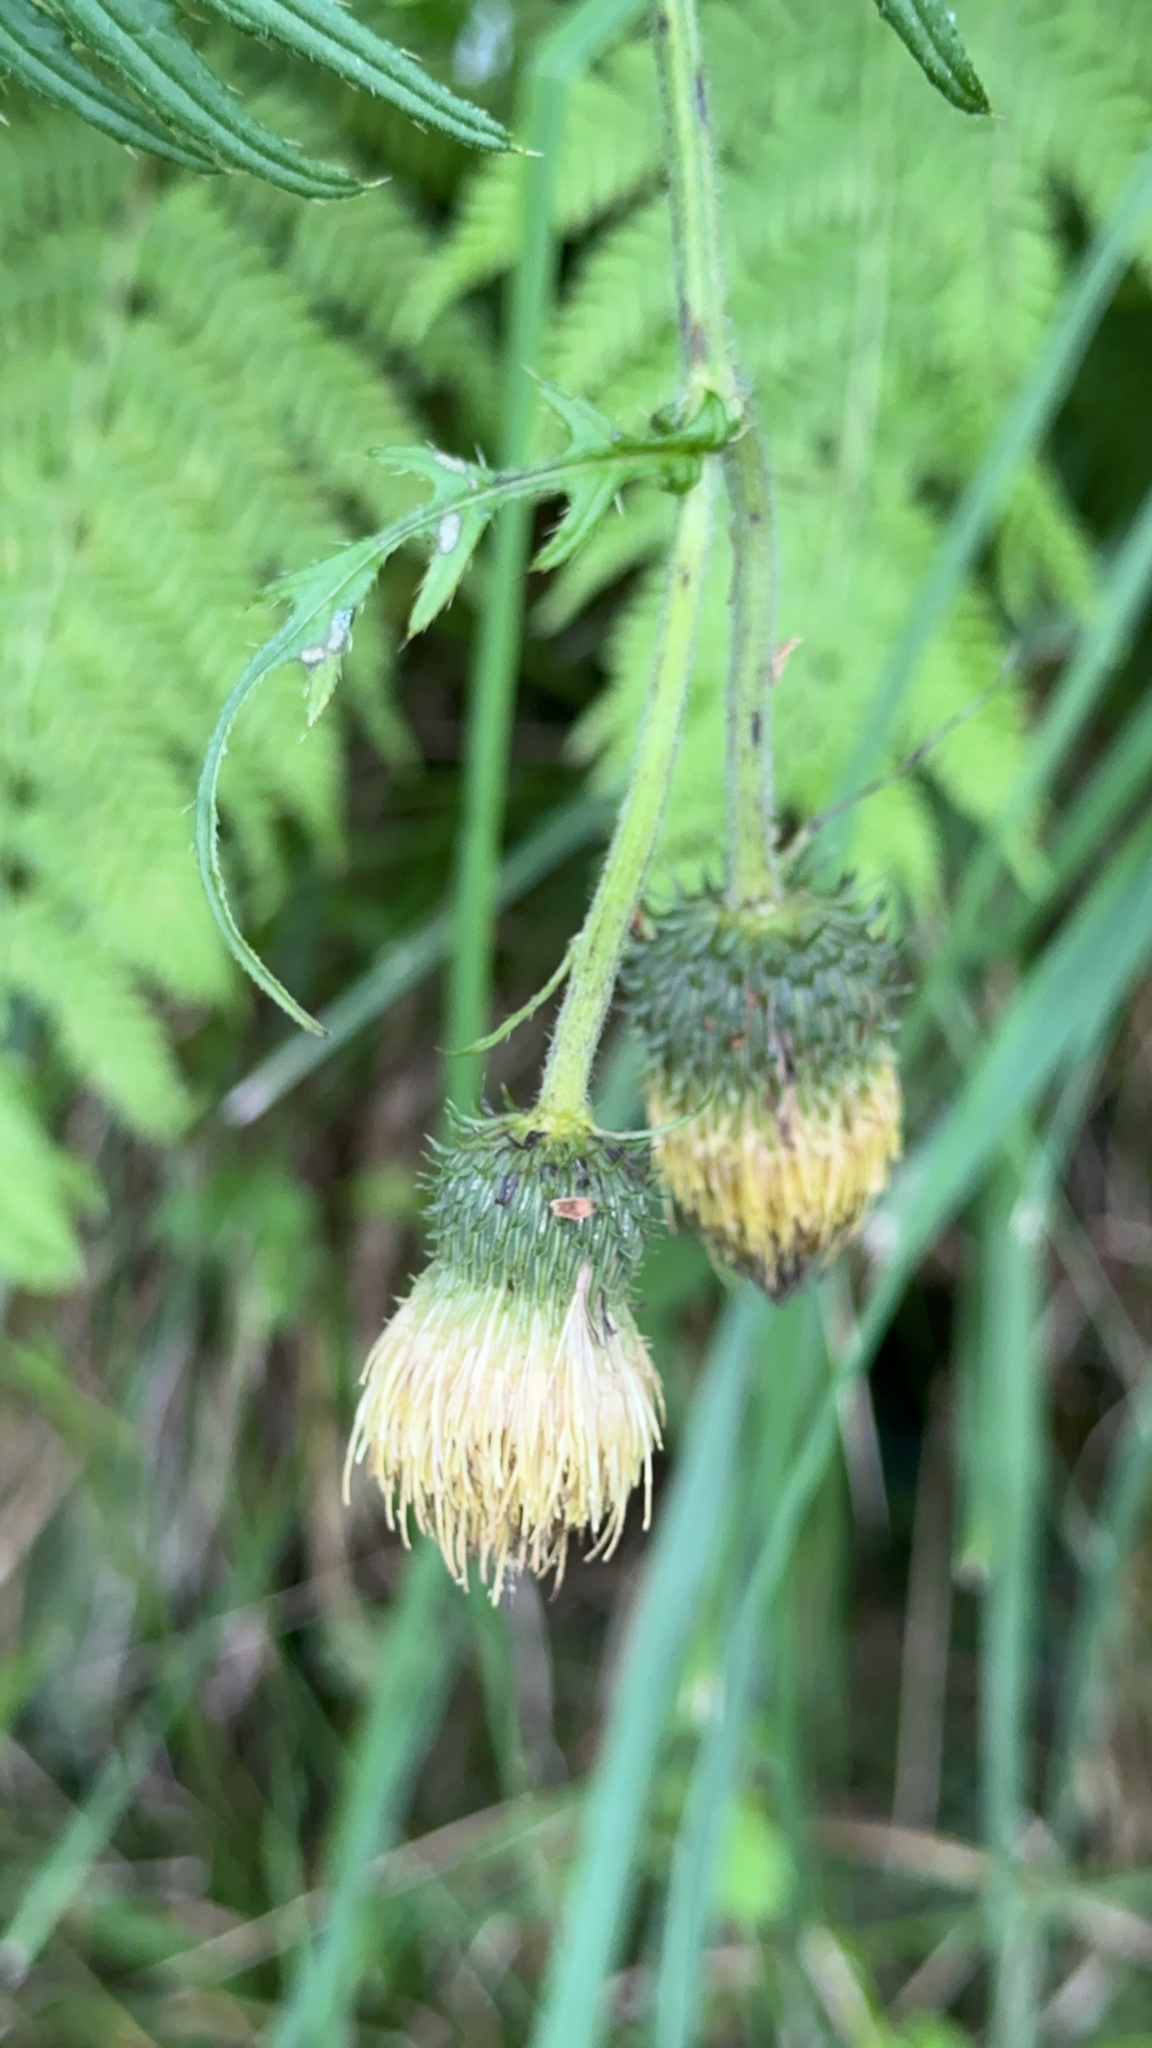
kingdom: Plantae
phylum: Tracheophyta
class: Magnoliopsida
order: Asterales
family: Asteraceae
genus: Cirsium
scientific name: Cirsium erisithales
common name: Yellow thistle
